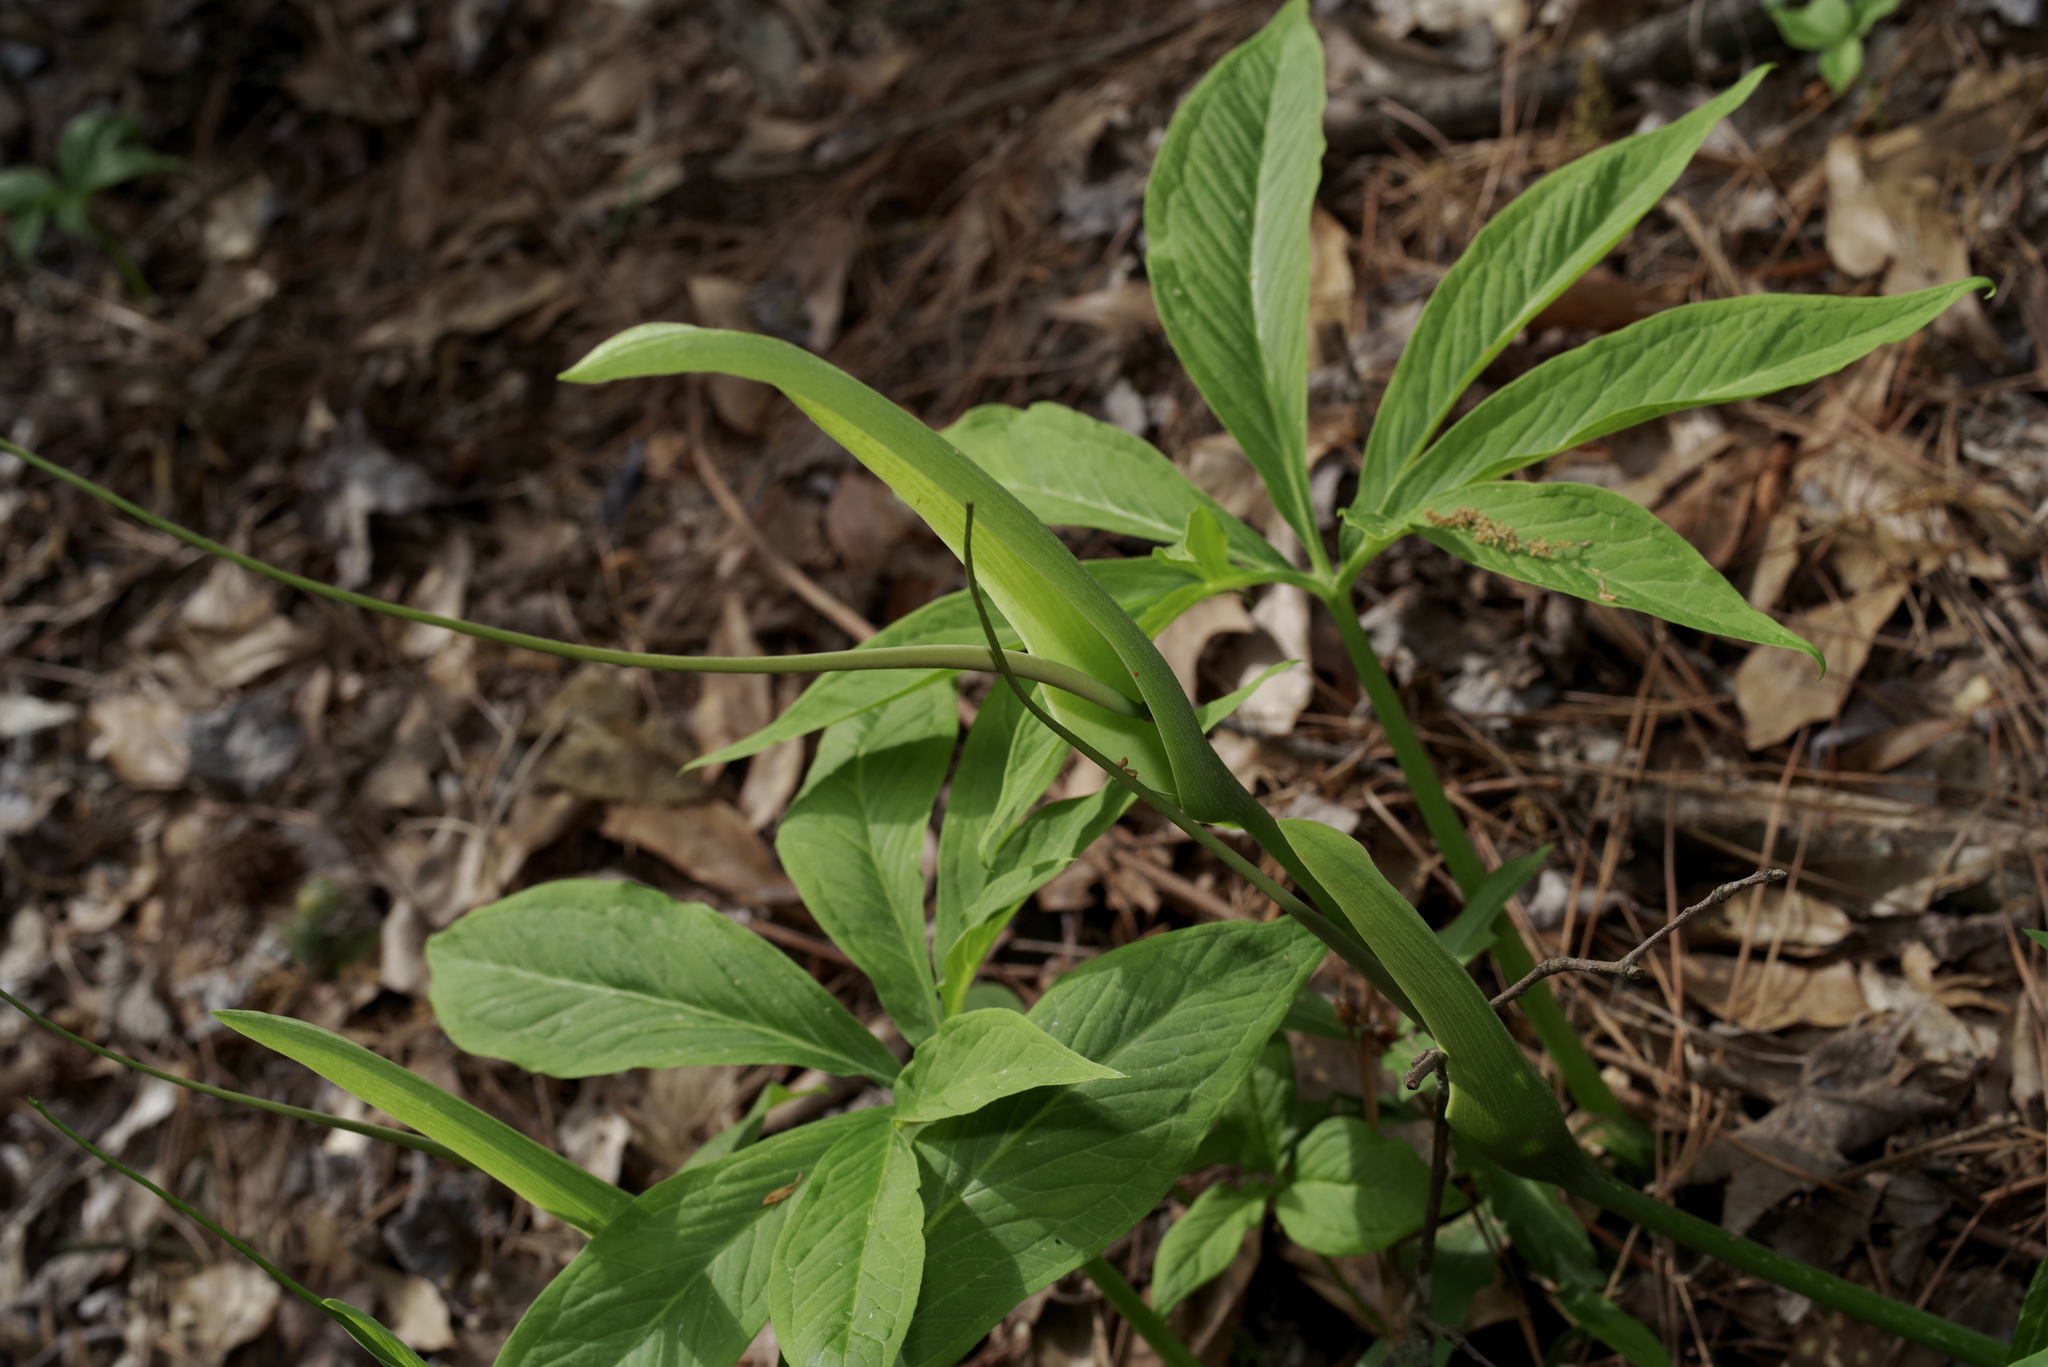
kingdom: Plantae
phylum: Tracheophyta
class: Liliopsida
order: Alismatales
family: Araceae
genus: Pinellia
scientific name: Pinellia pedatisecta
